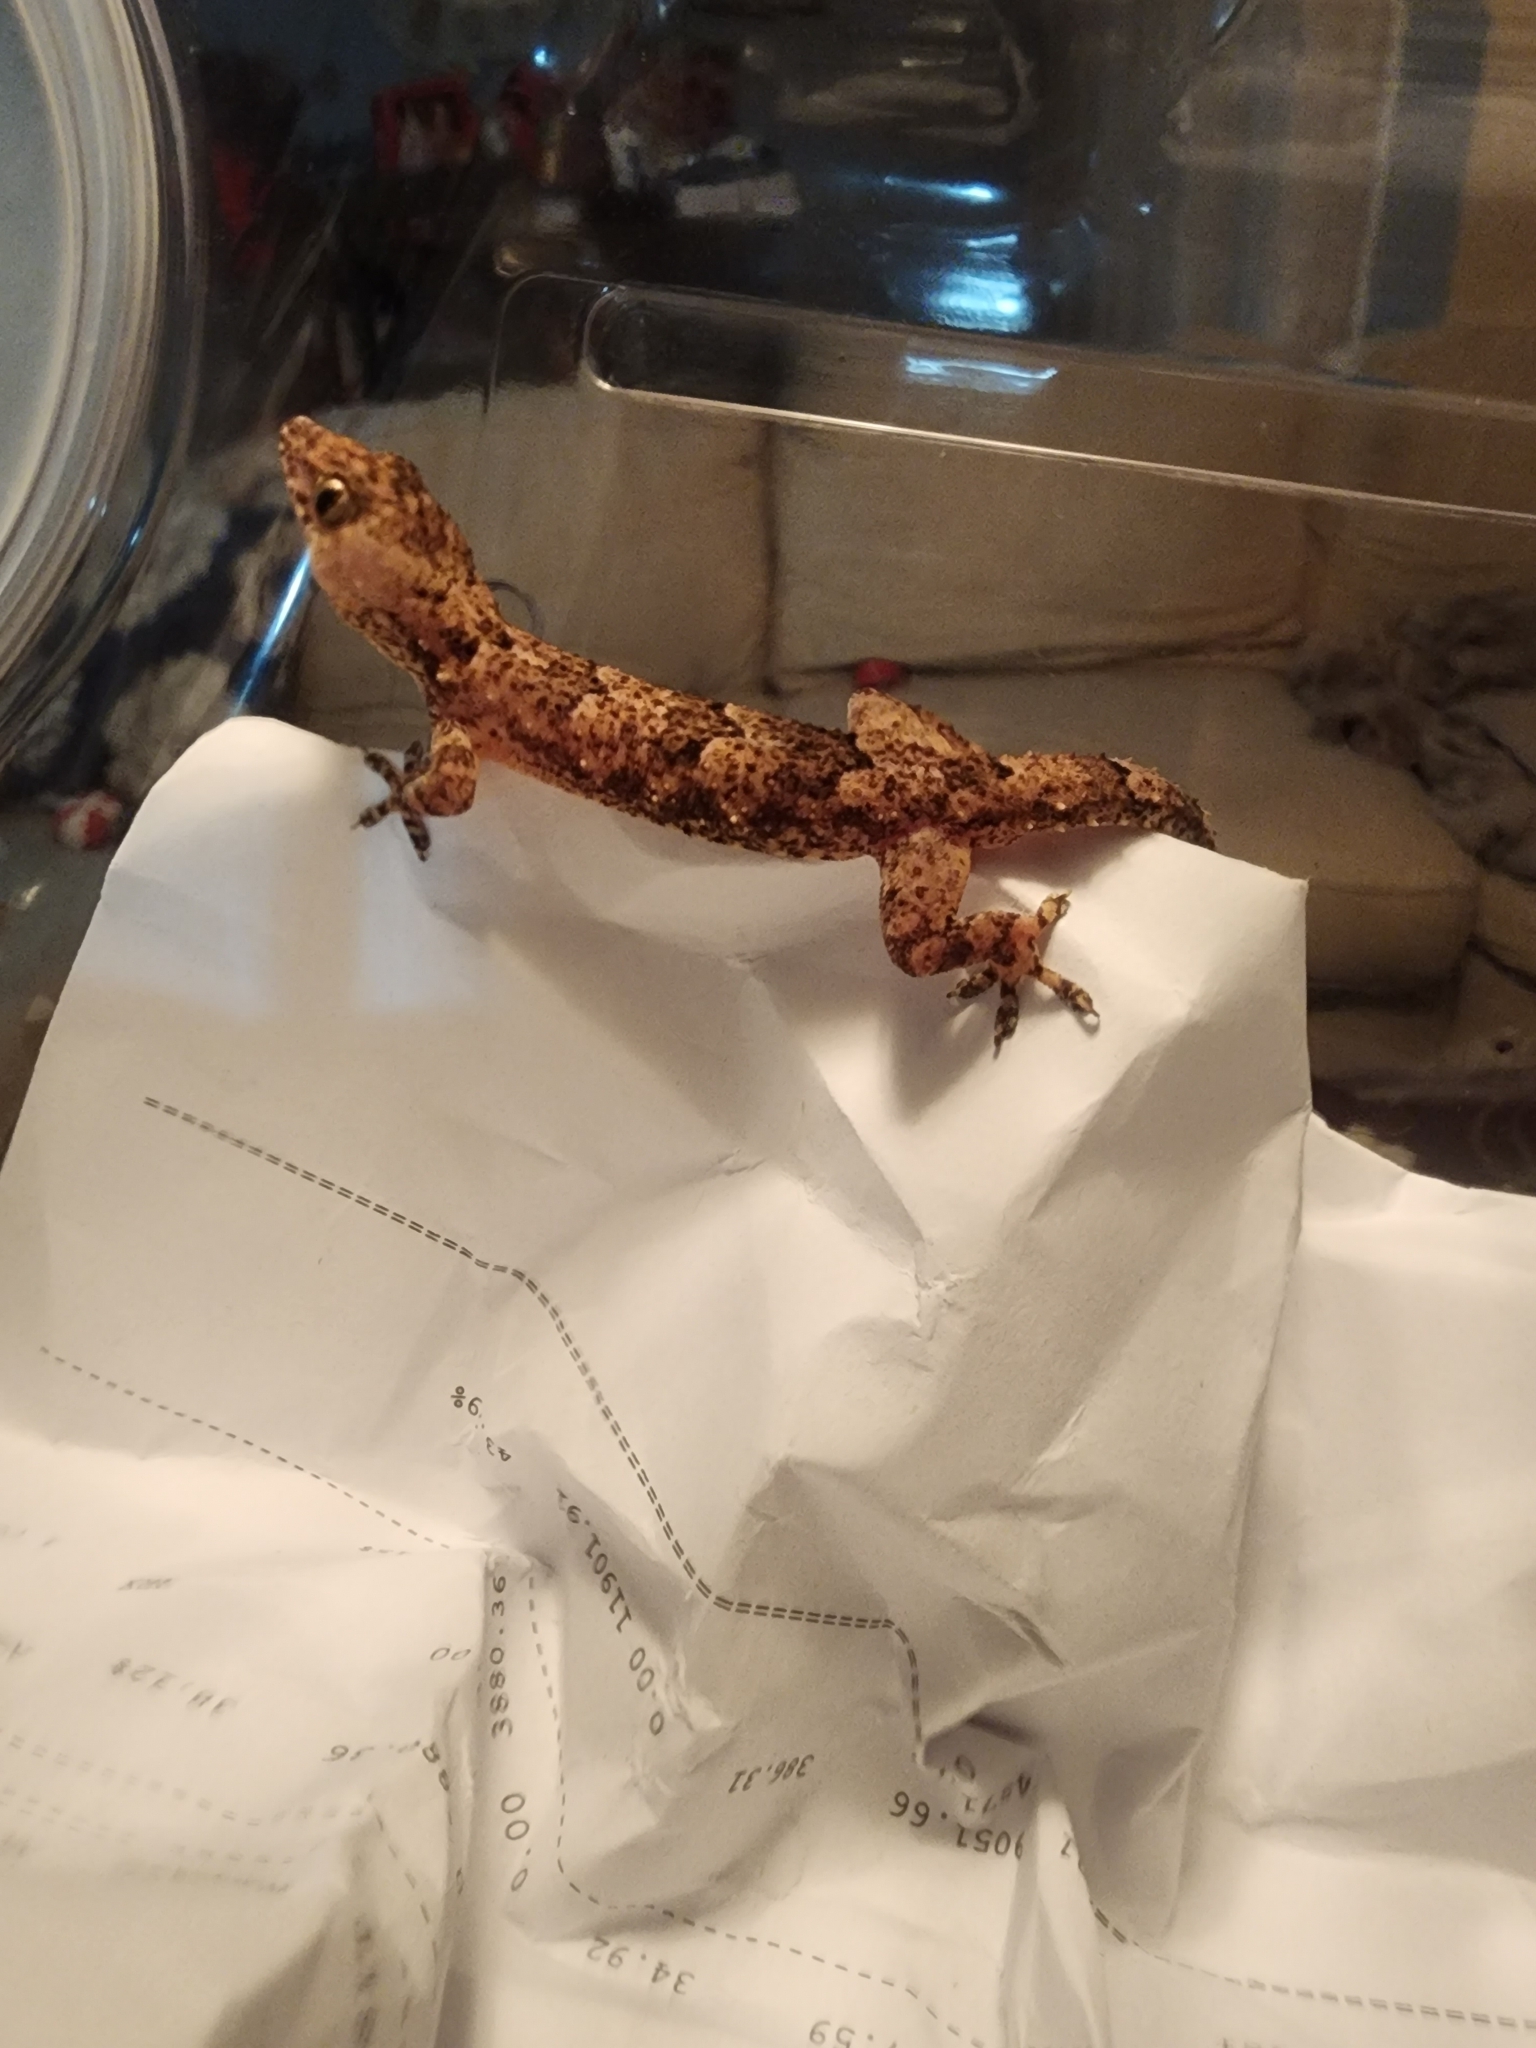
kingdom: Animalia
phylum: Chordata
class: Squamata
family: Gekkonidae
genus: Hemidactylus
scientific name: Hemidactylus mabouia
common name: House gecko
